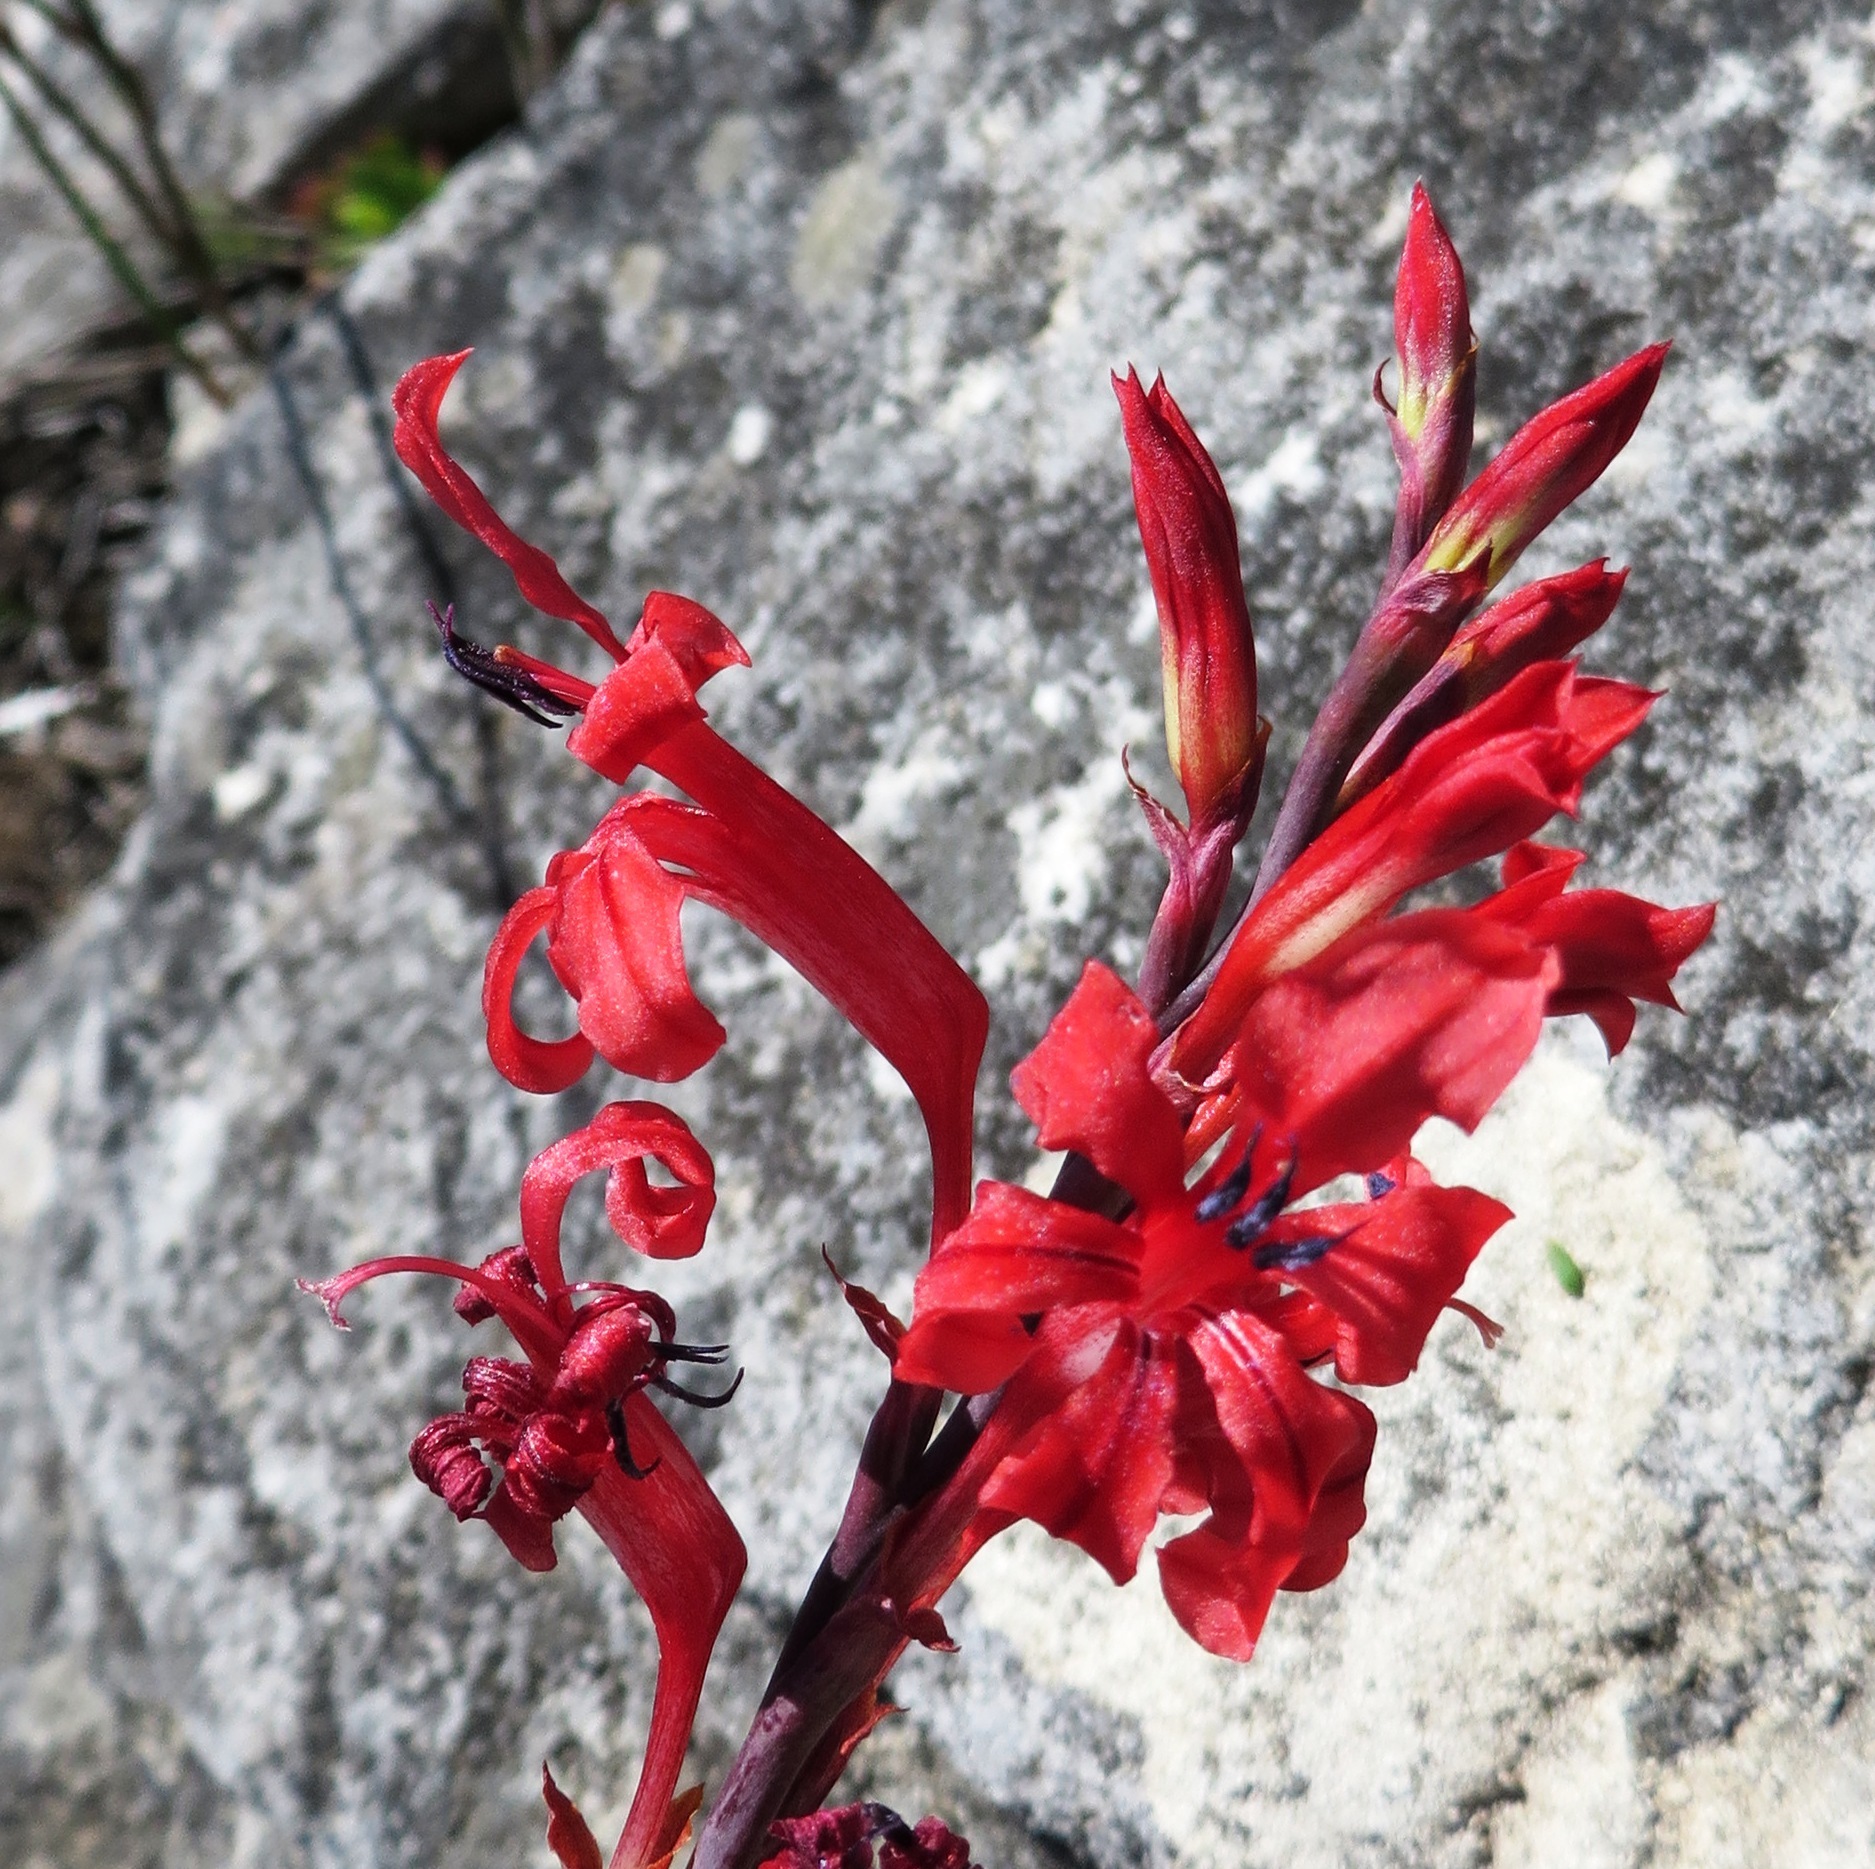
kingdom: Plantae
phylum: Tracheophyta
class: Liliopsida
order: Asparagales
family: Iridaceae
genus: Tritoniopsis
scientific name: Tritoniopsis pulchra
